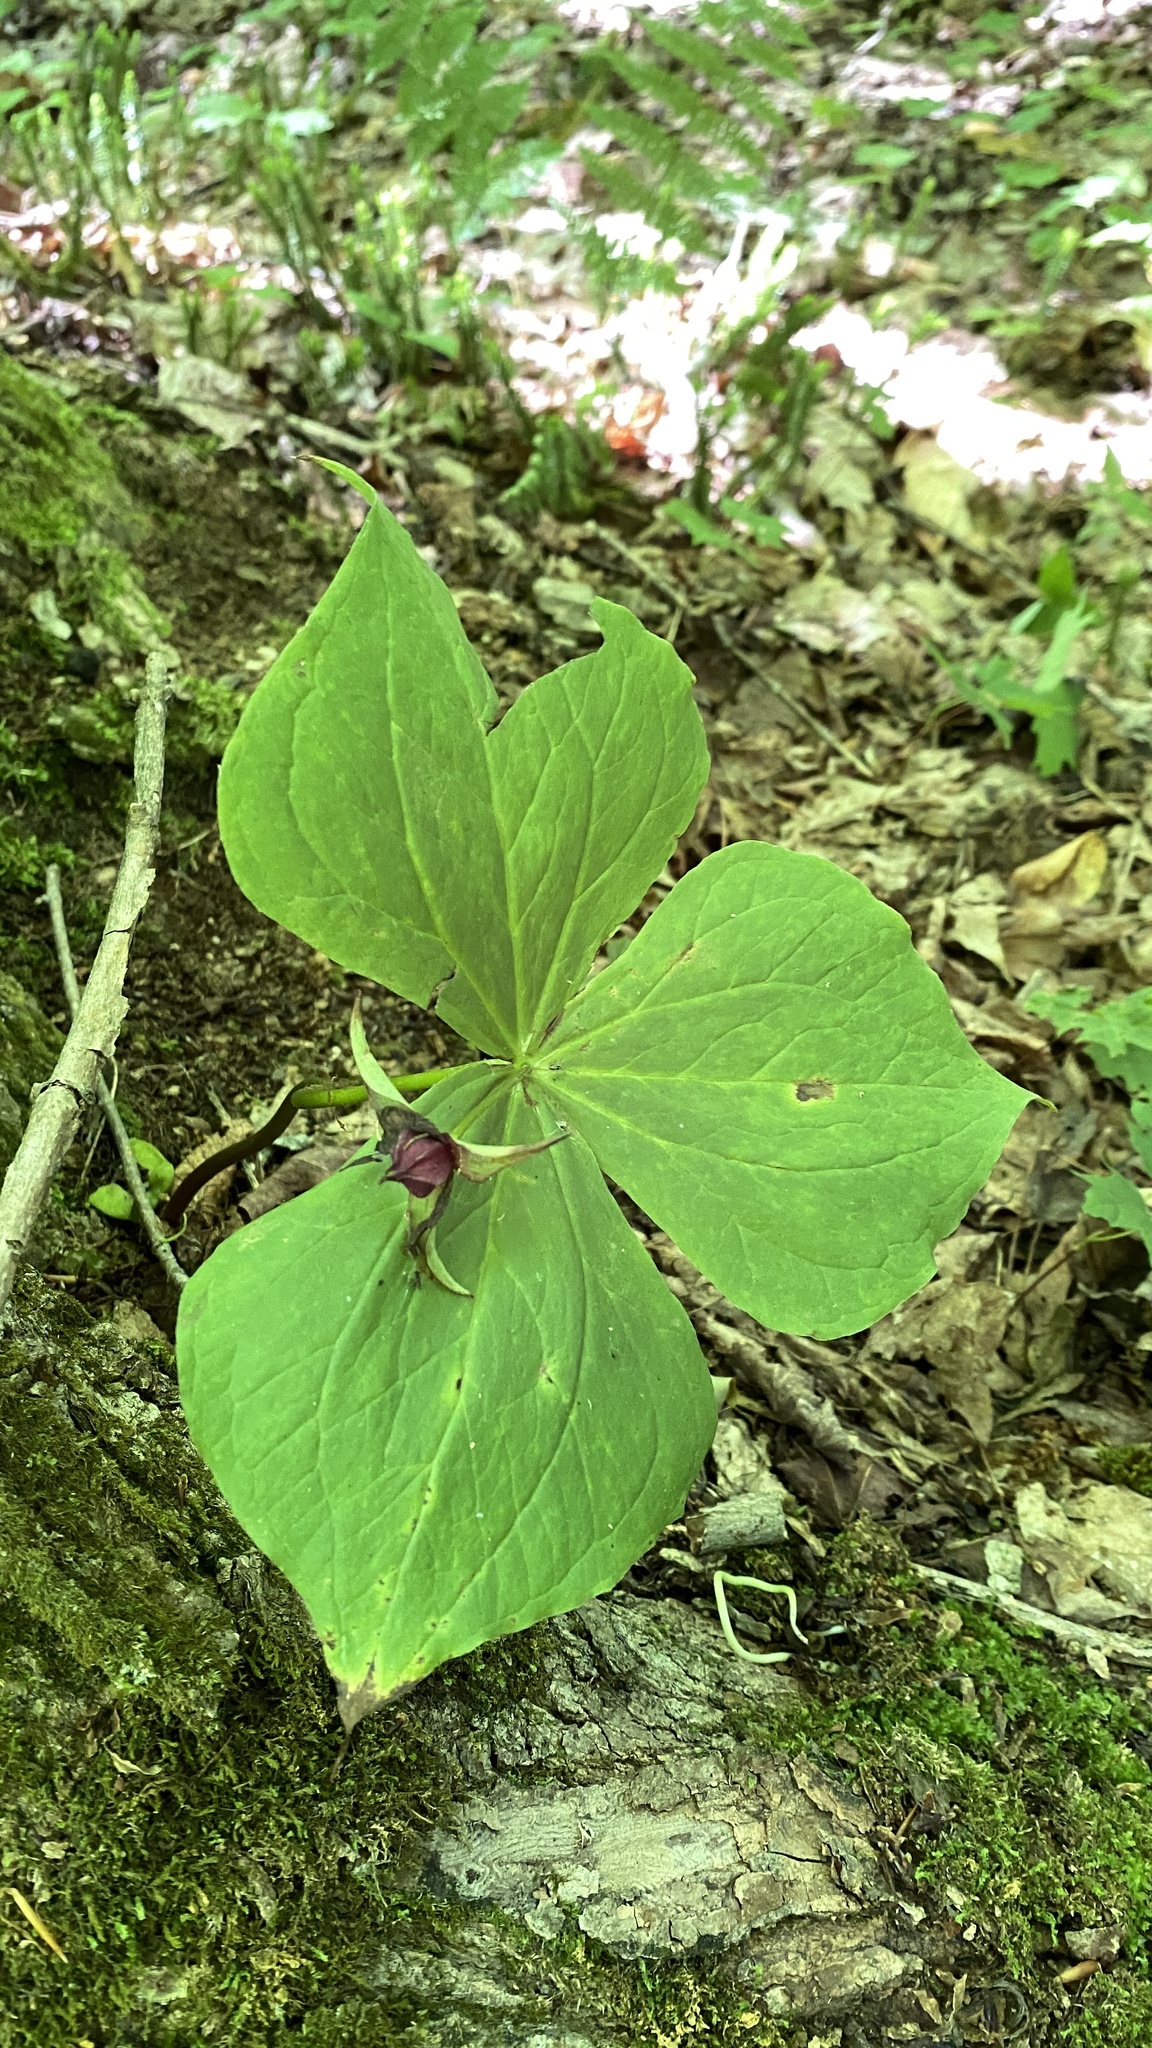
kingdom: Plantae
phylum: Tracheophyta
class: Liliopsida
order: Liliales
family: Melanthiaceae
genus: Trillium
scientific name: Trillium erectum
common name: Purple trillium
